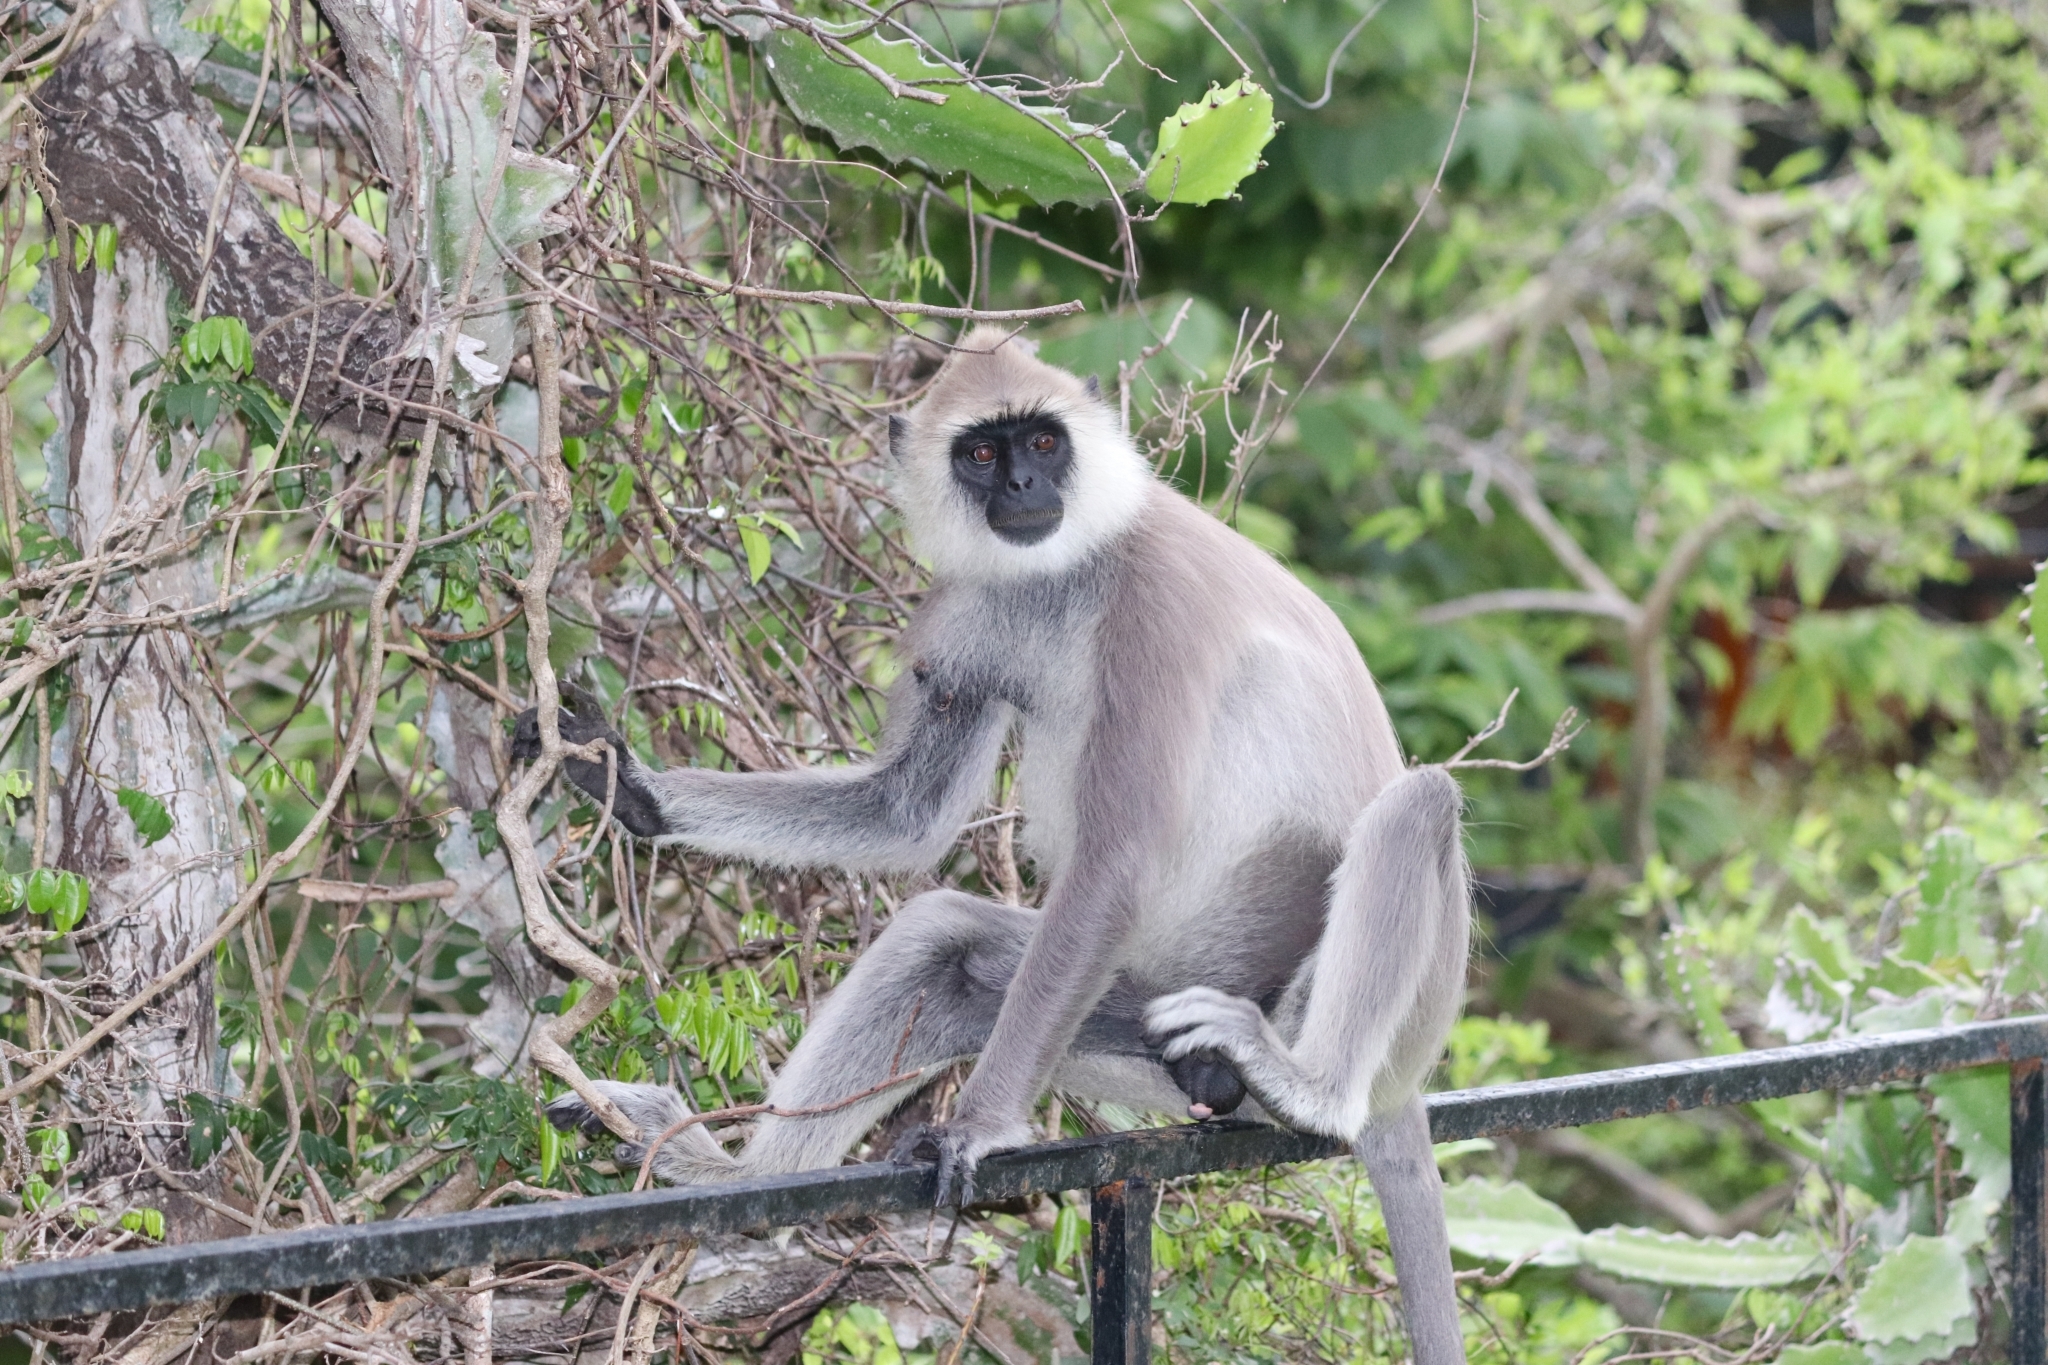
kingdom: Animalia
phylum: Chordata
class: Mammalia
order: Primates
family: Cercopithecidae
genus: Semnopithecus
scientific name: Semnopithecus priam
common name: Tufted gray langur
